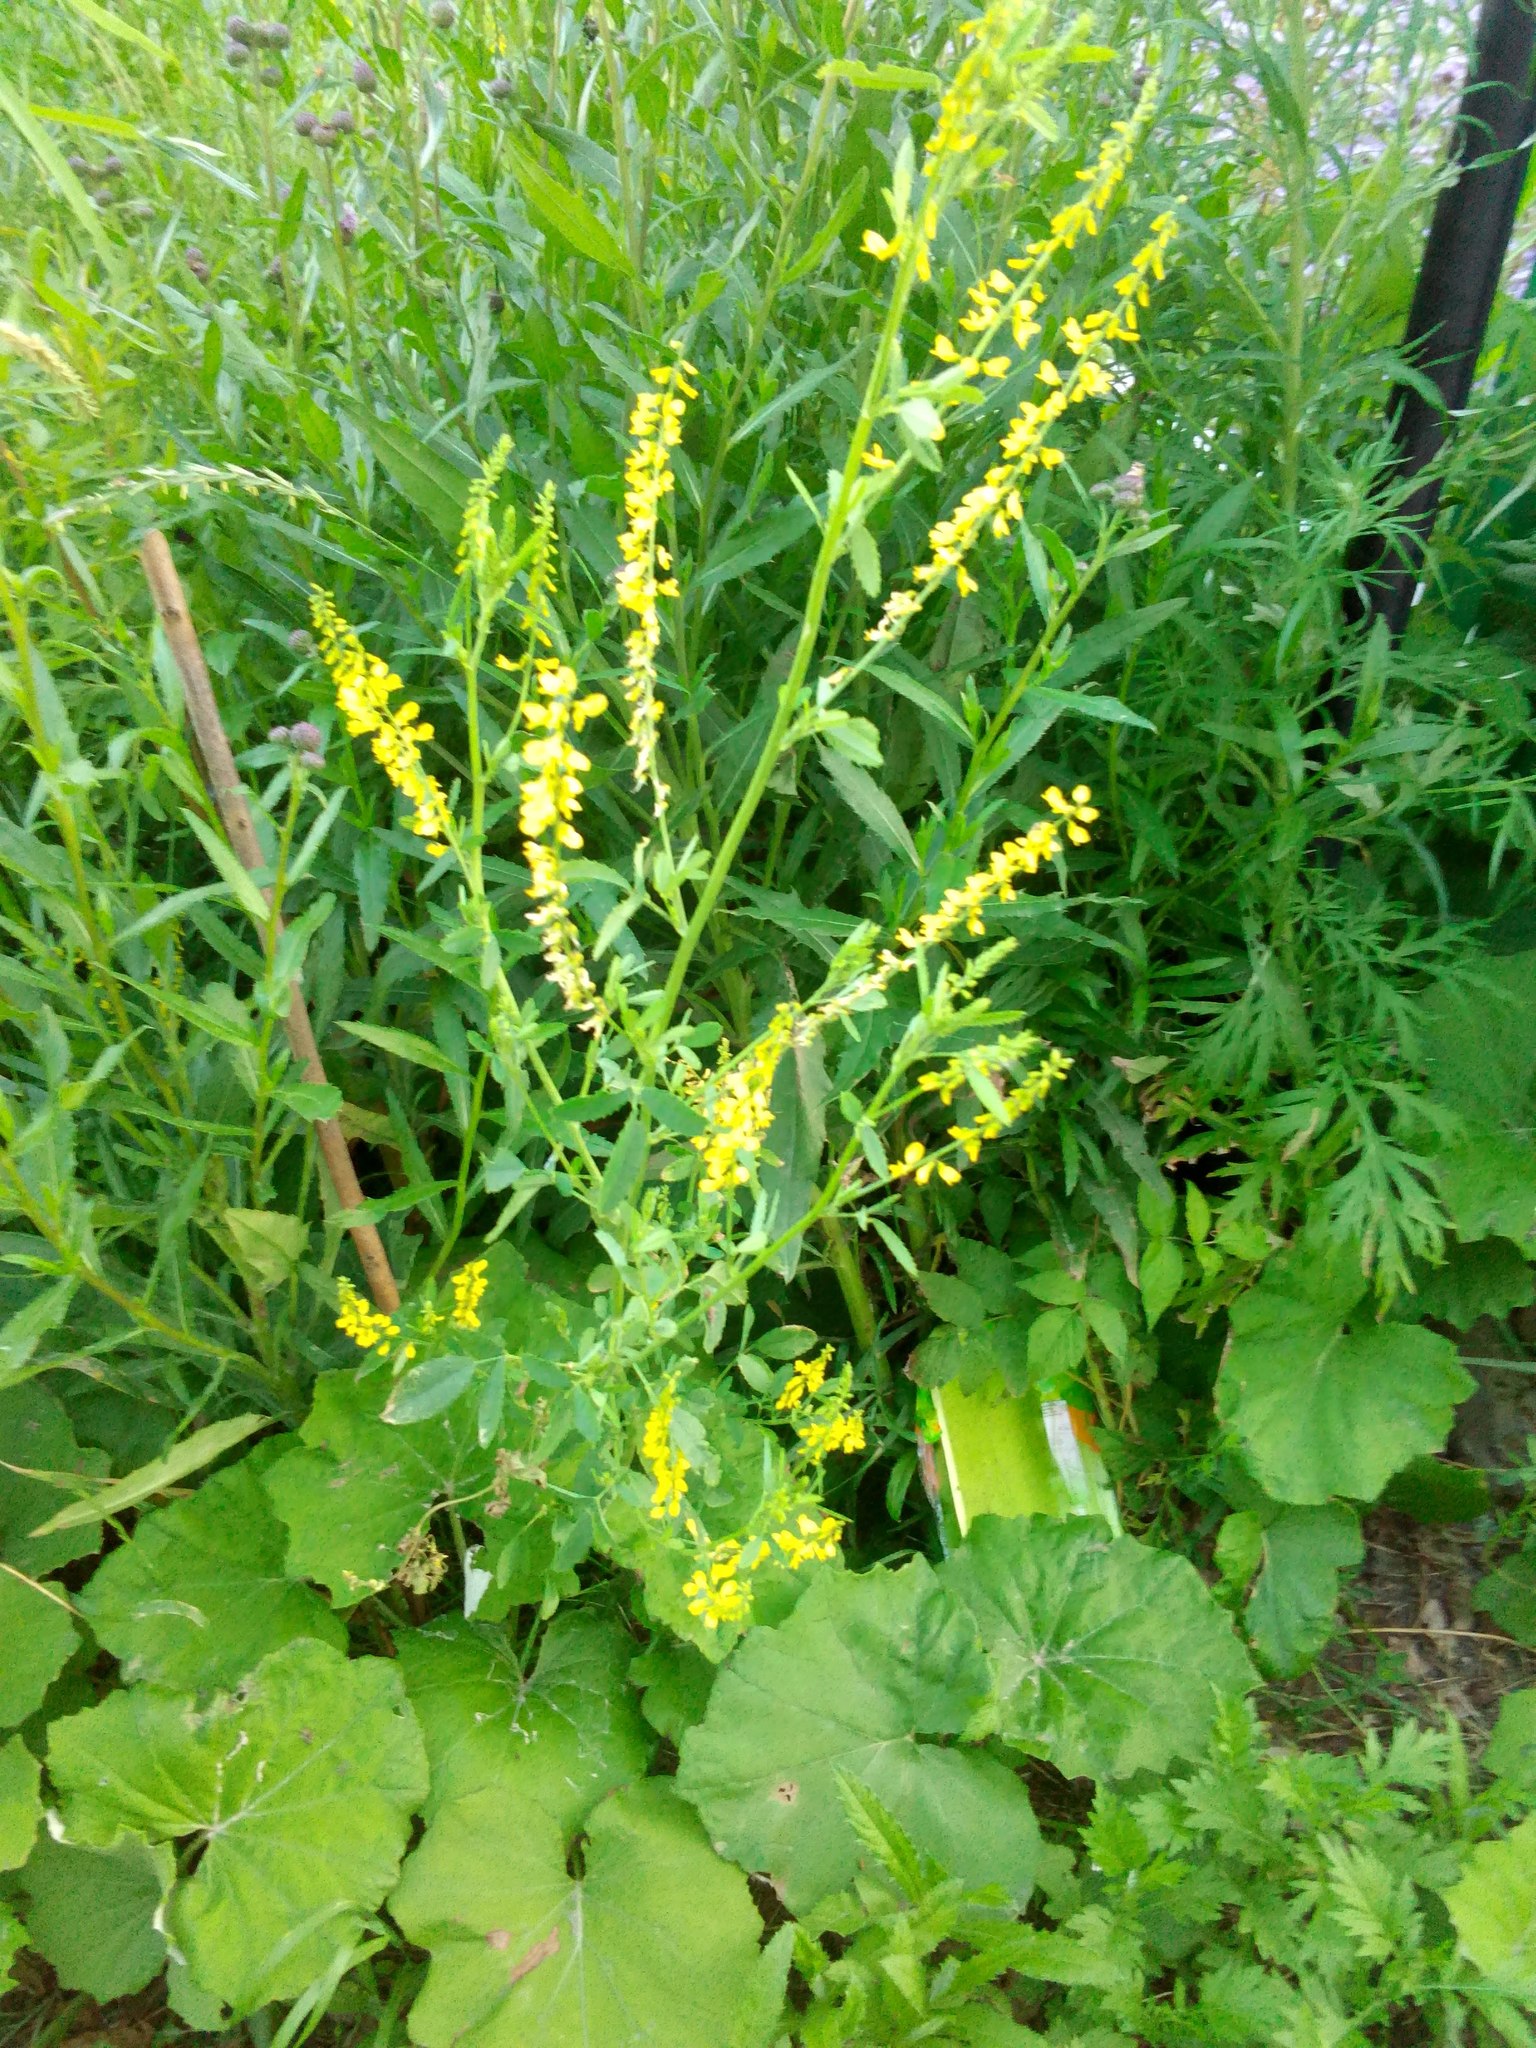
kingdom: Plantae
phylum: Tracheophyta
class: Magnoliopsida
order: Fabales
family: Fabaceae
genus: Melilotus
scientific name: Melilotus officinalis
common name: Sweetclover
